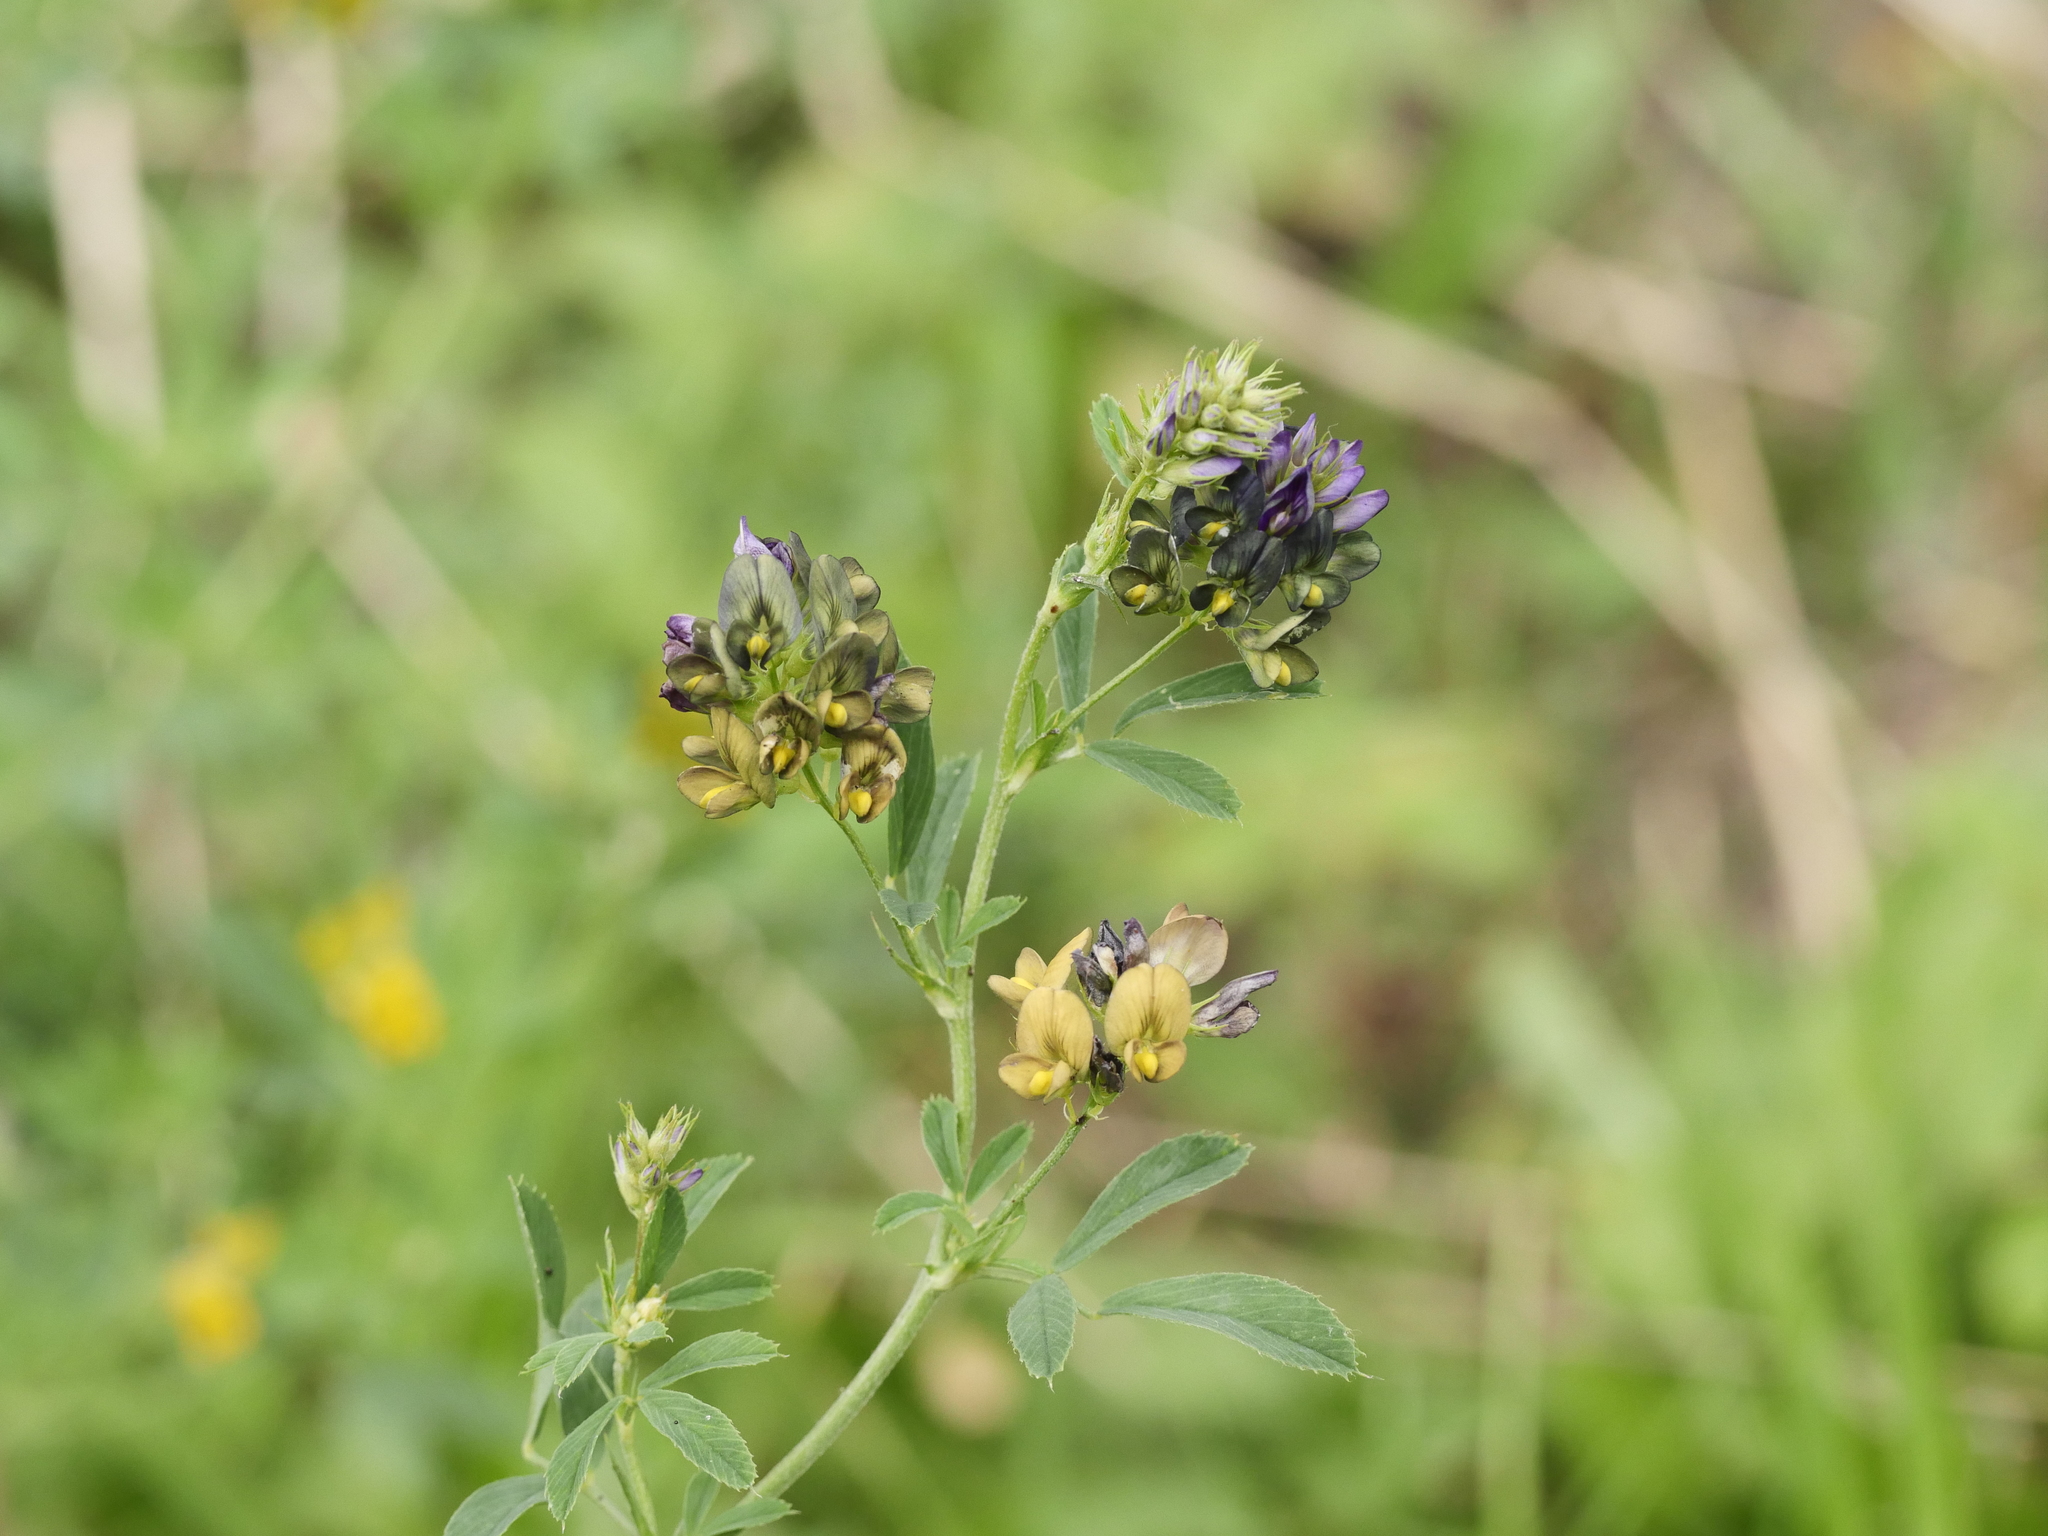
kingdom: Plantae
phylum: Tracheophyta
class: Magnoliopsida
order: Fabales
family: Fabaceae
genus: Medicago
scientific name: Medicago varia
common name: Sand lucerne
